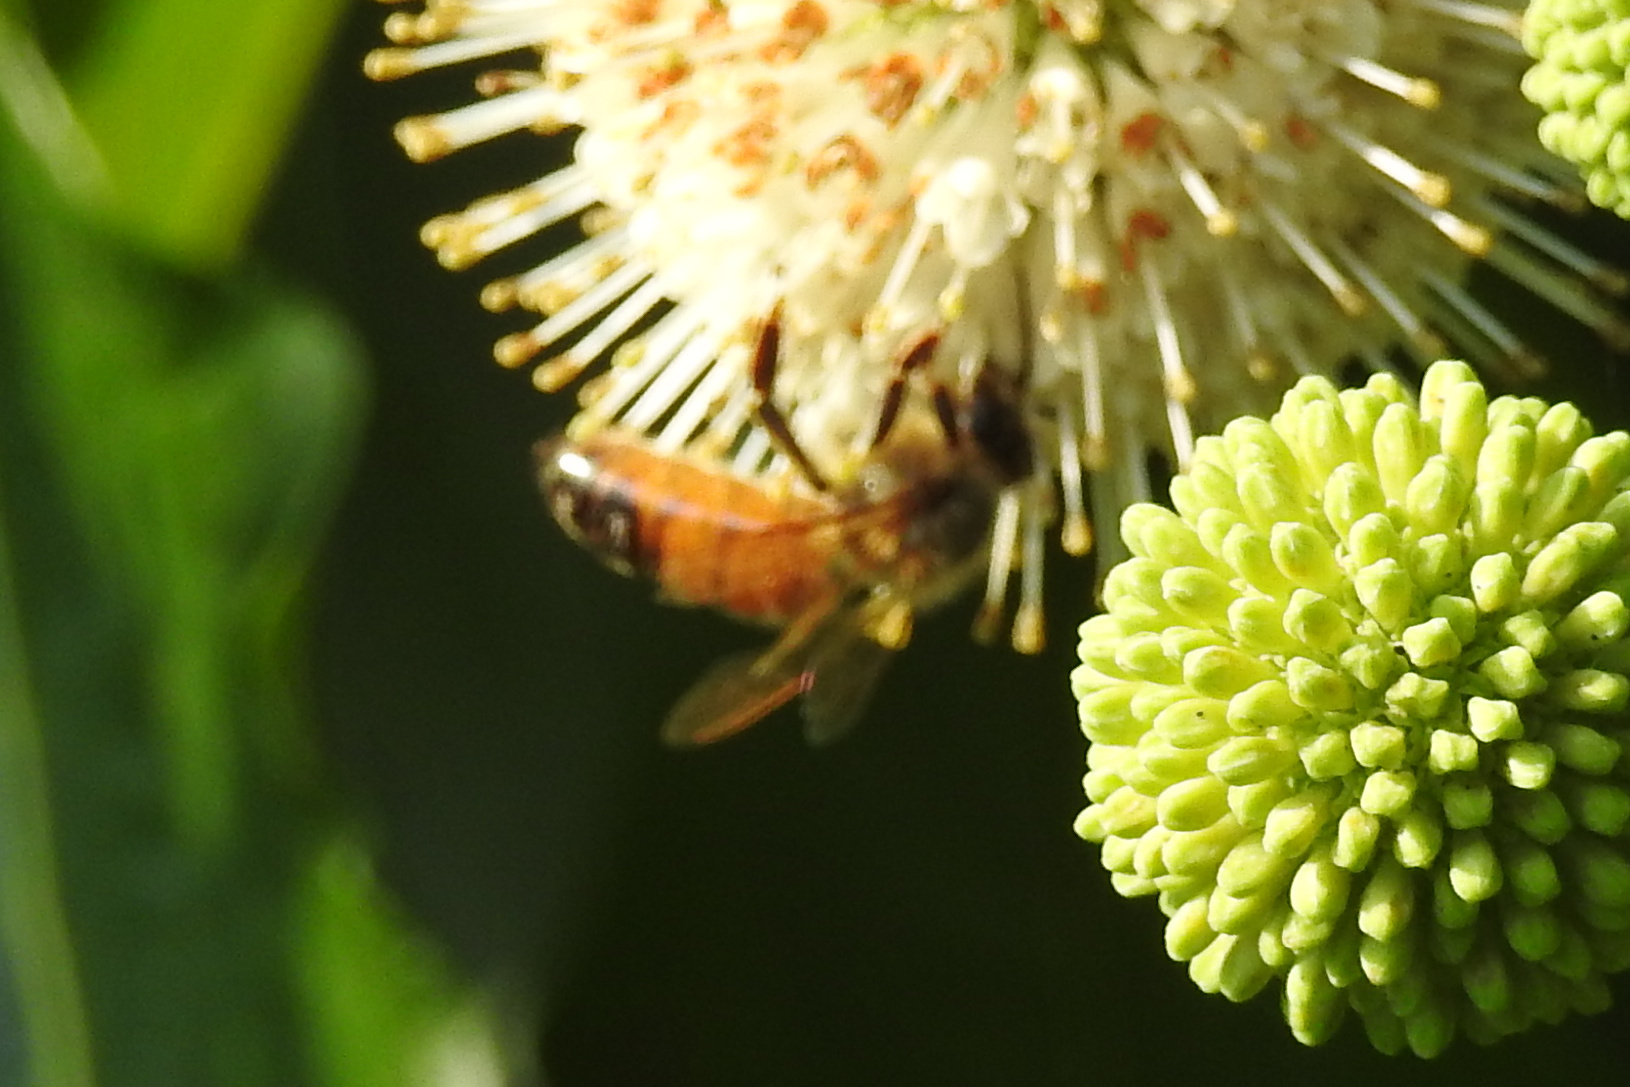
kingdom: Animalia
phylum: Arthropoda
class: Insecta
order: Hymenoptera
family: Apidae
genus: Apis
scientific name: Apis mellifera
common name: Honey bee
